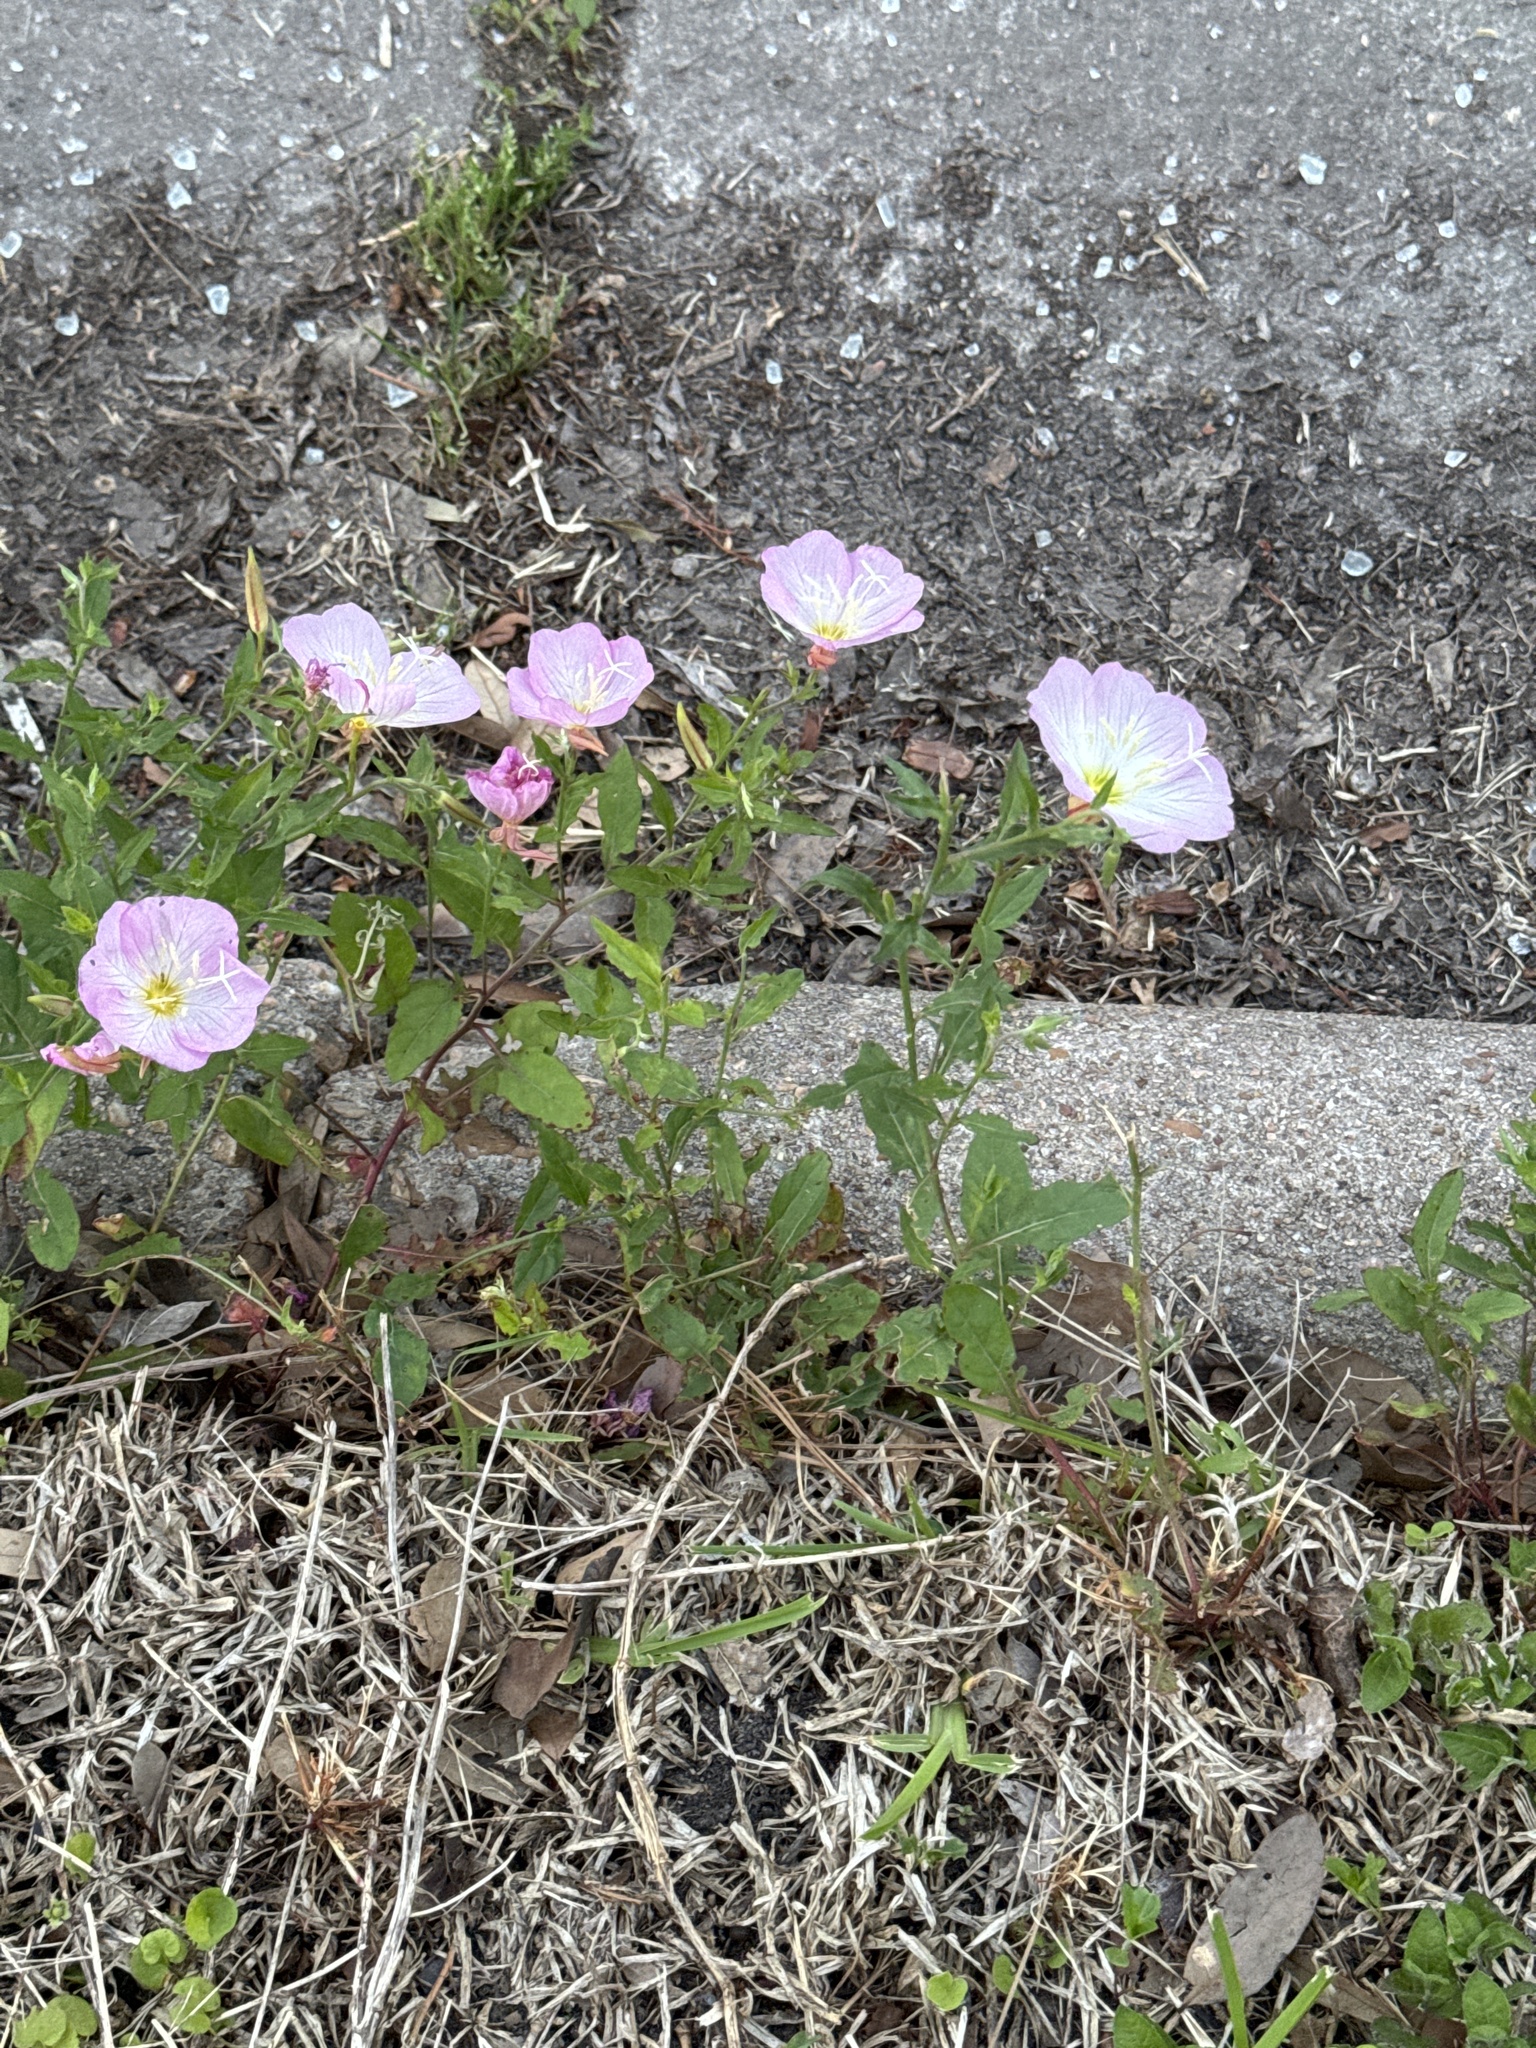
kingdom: Plantae
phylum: Tracheophyta
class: Magnoliopsida
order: Myrtales
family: Onagraceae
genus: Oenothera
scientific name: Oenothera speciosa
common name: White evening-primrose
